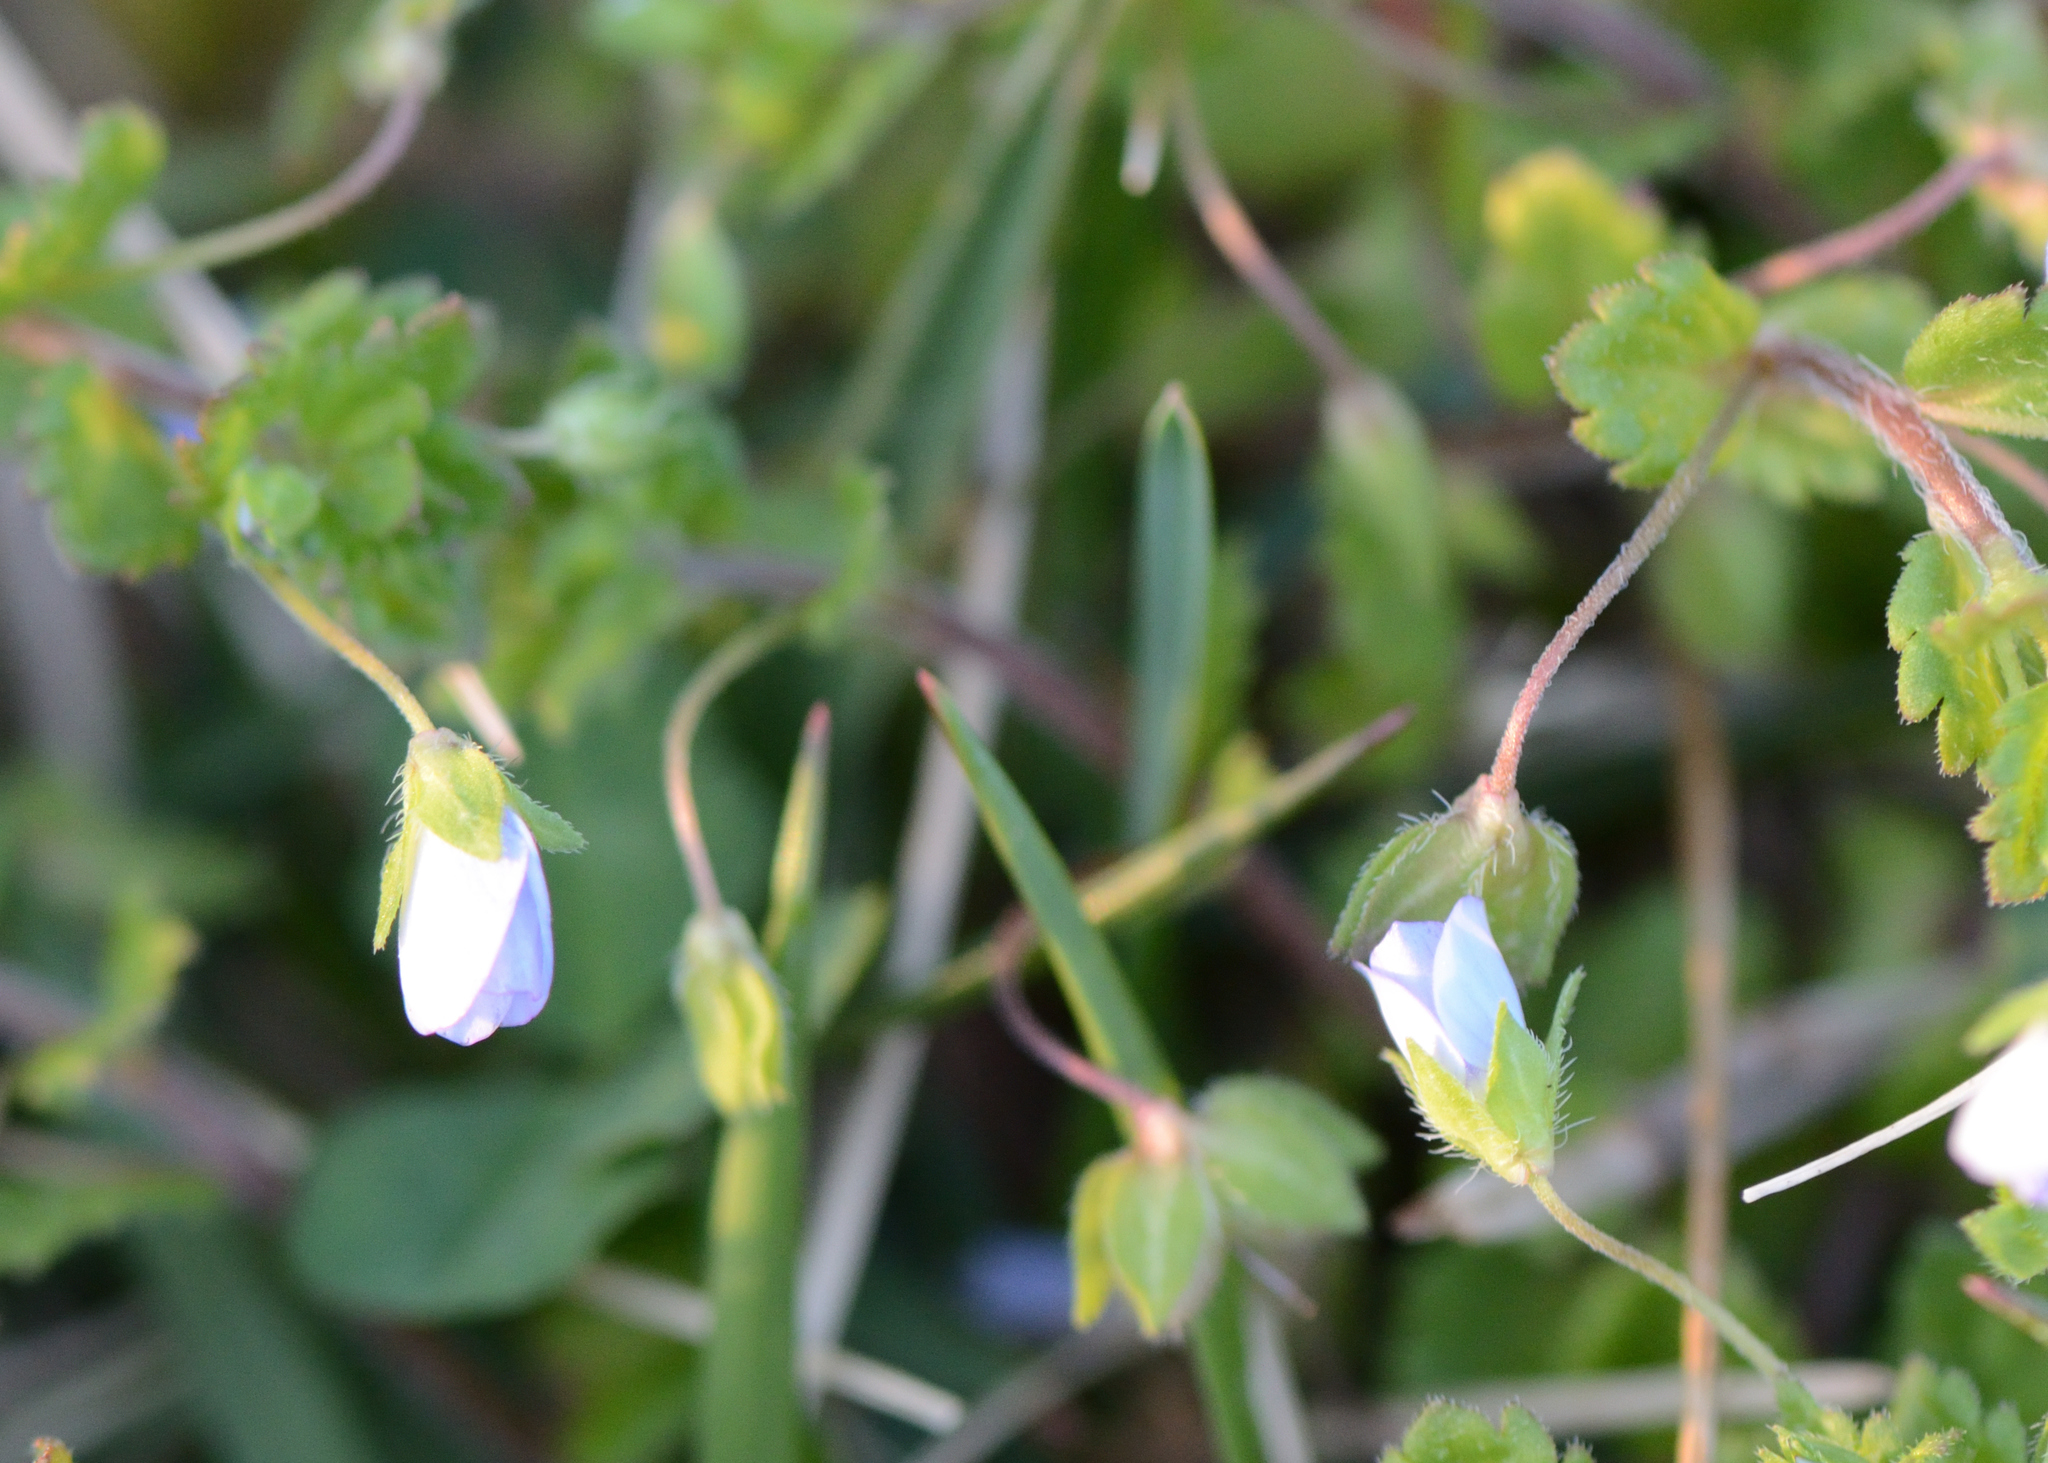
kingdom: Plantae
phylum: Tracheophyta
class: Magnoliopsida
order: Lamiales
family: Plantaginaceae
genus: Veronica
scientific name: Veronica persica
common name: Common field-speedwell
